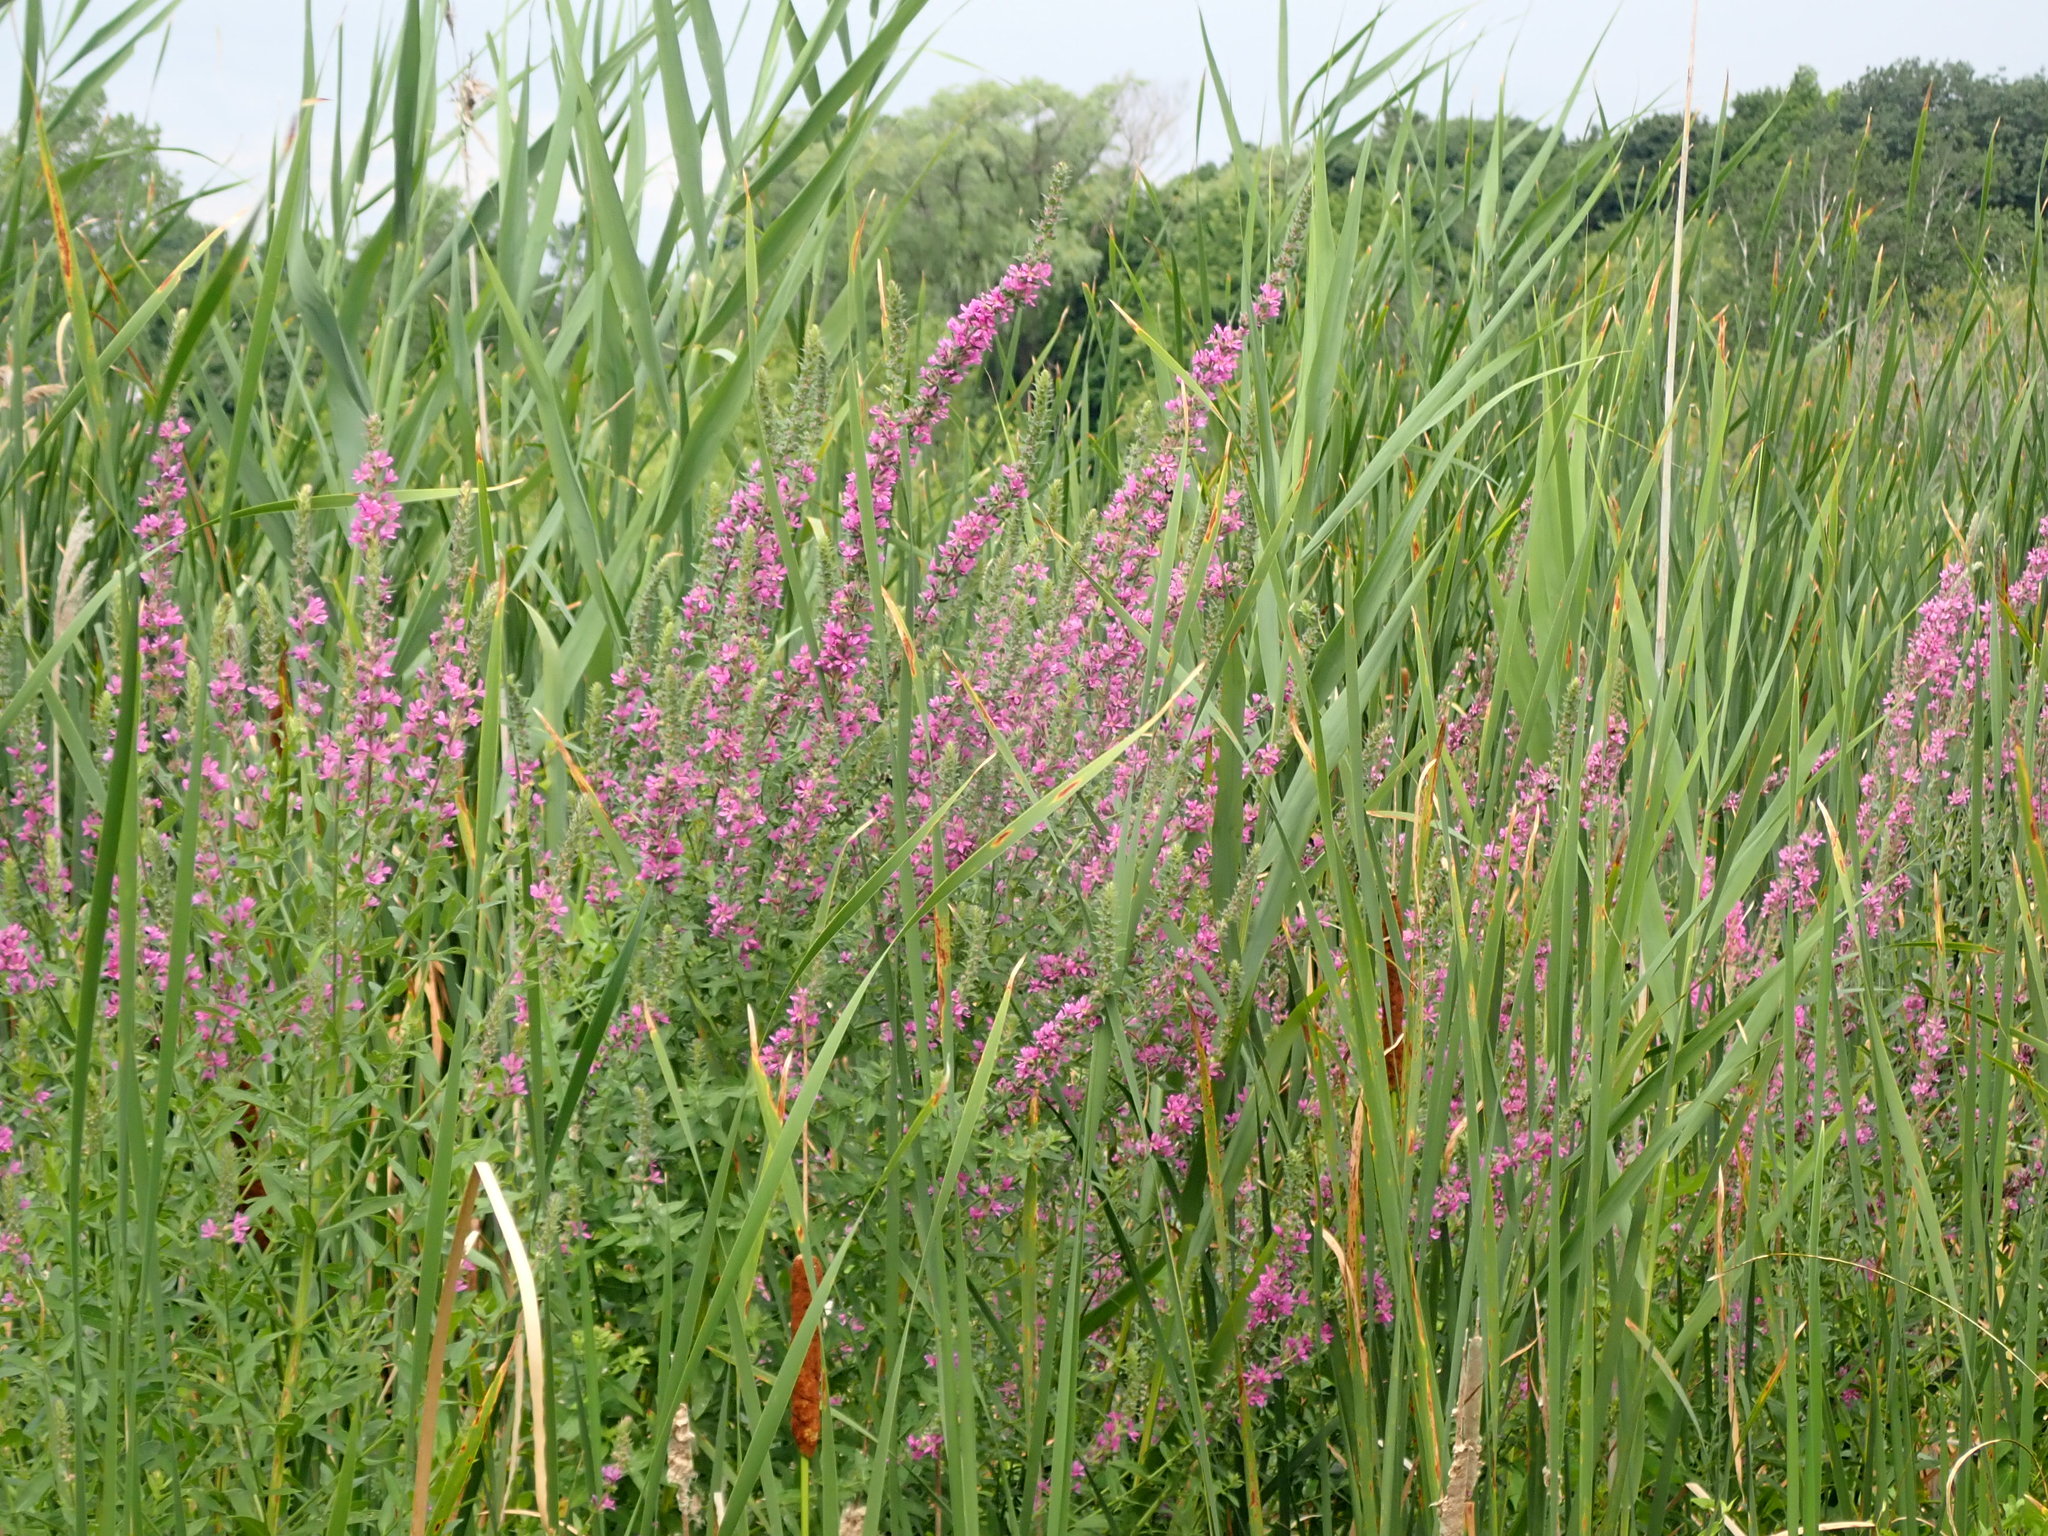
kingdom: Plantae
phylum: Tracheophyta
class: Magnoliopsida
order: Myrtales
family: Lythraceae
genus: Lythrum
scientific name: Lythrum salicaria
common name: Purple loosestrife
